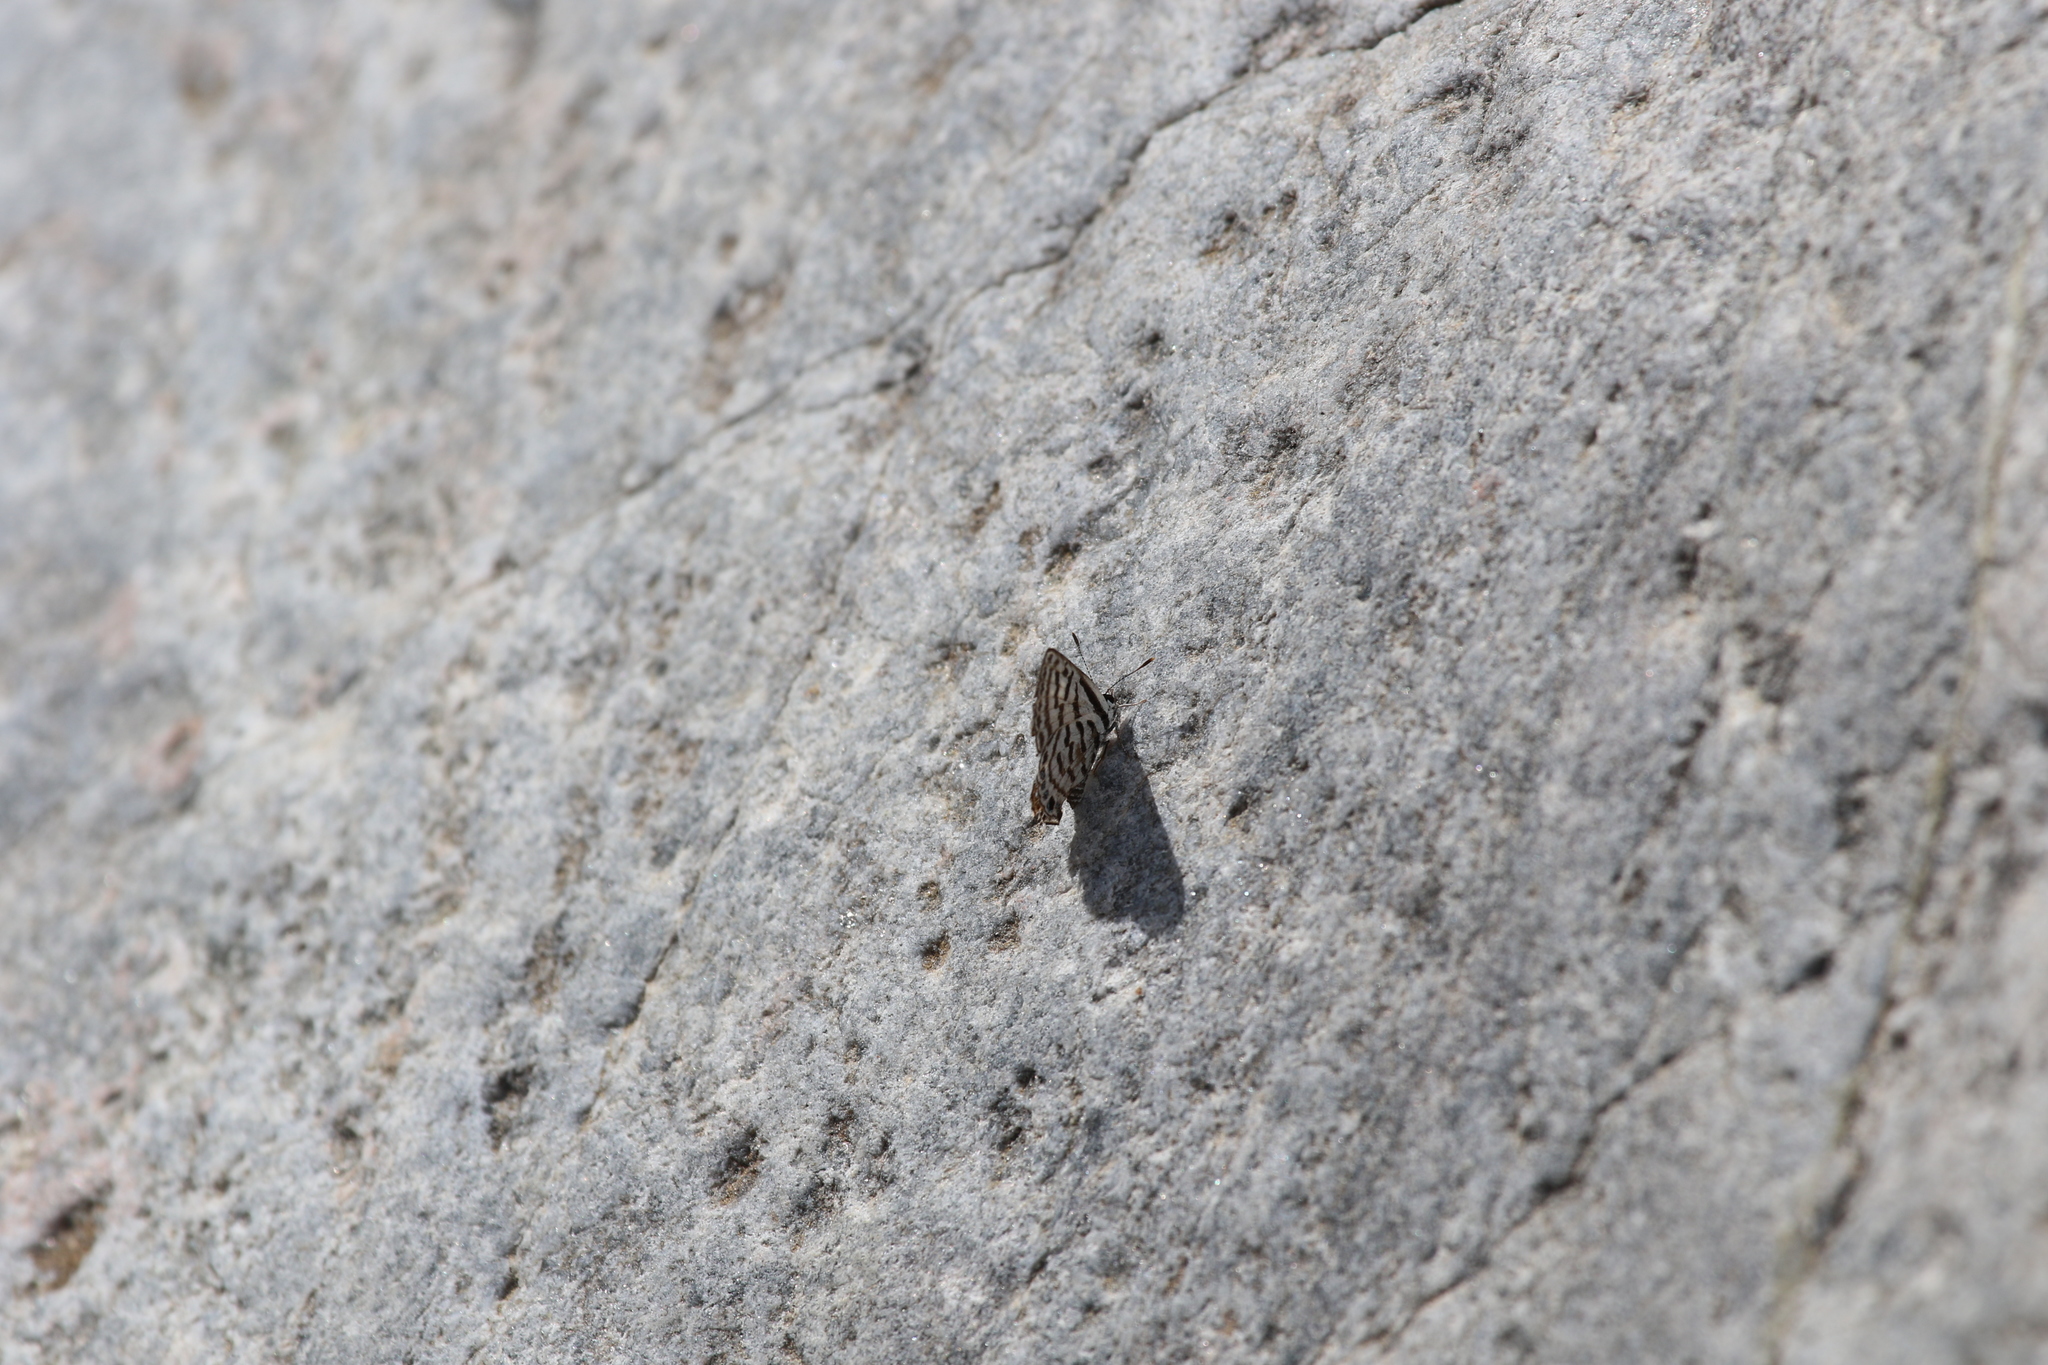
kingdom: Animalia
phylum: Arthropoda
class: Insecta
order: Lepidoptera
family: Lycaenidae
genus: Tarucus
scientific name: Tarucus rosacea
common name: Mediterranean pierrot
